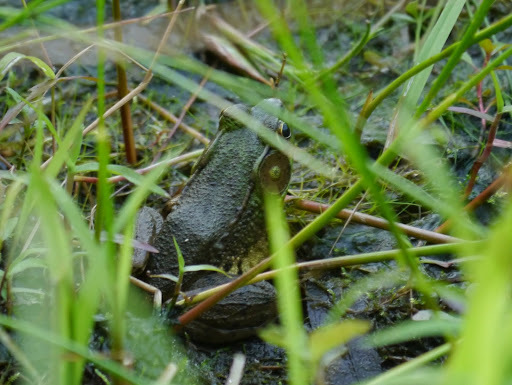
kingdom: Animalia
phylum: Chordata
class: Amphibia
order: Anura
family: Ranidae
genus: Lithobates
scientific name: Lithobates clamitans
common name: Green frog
